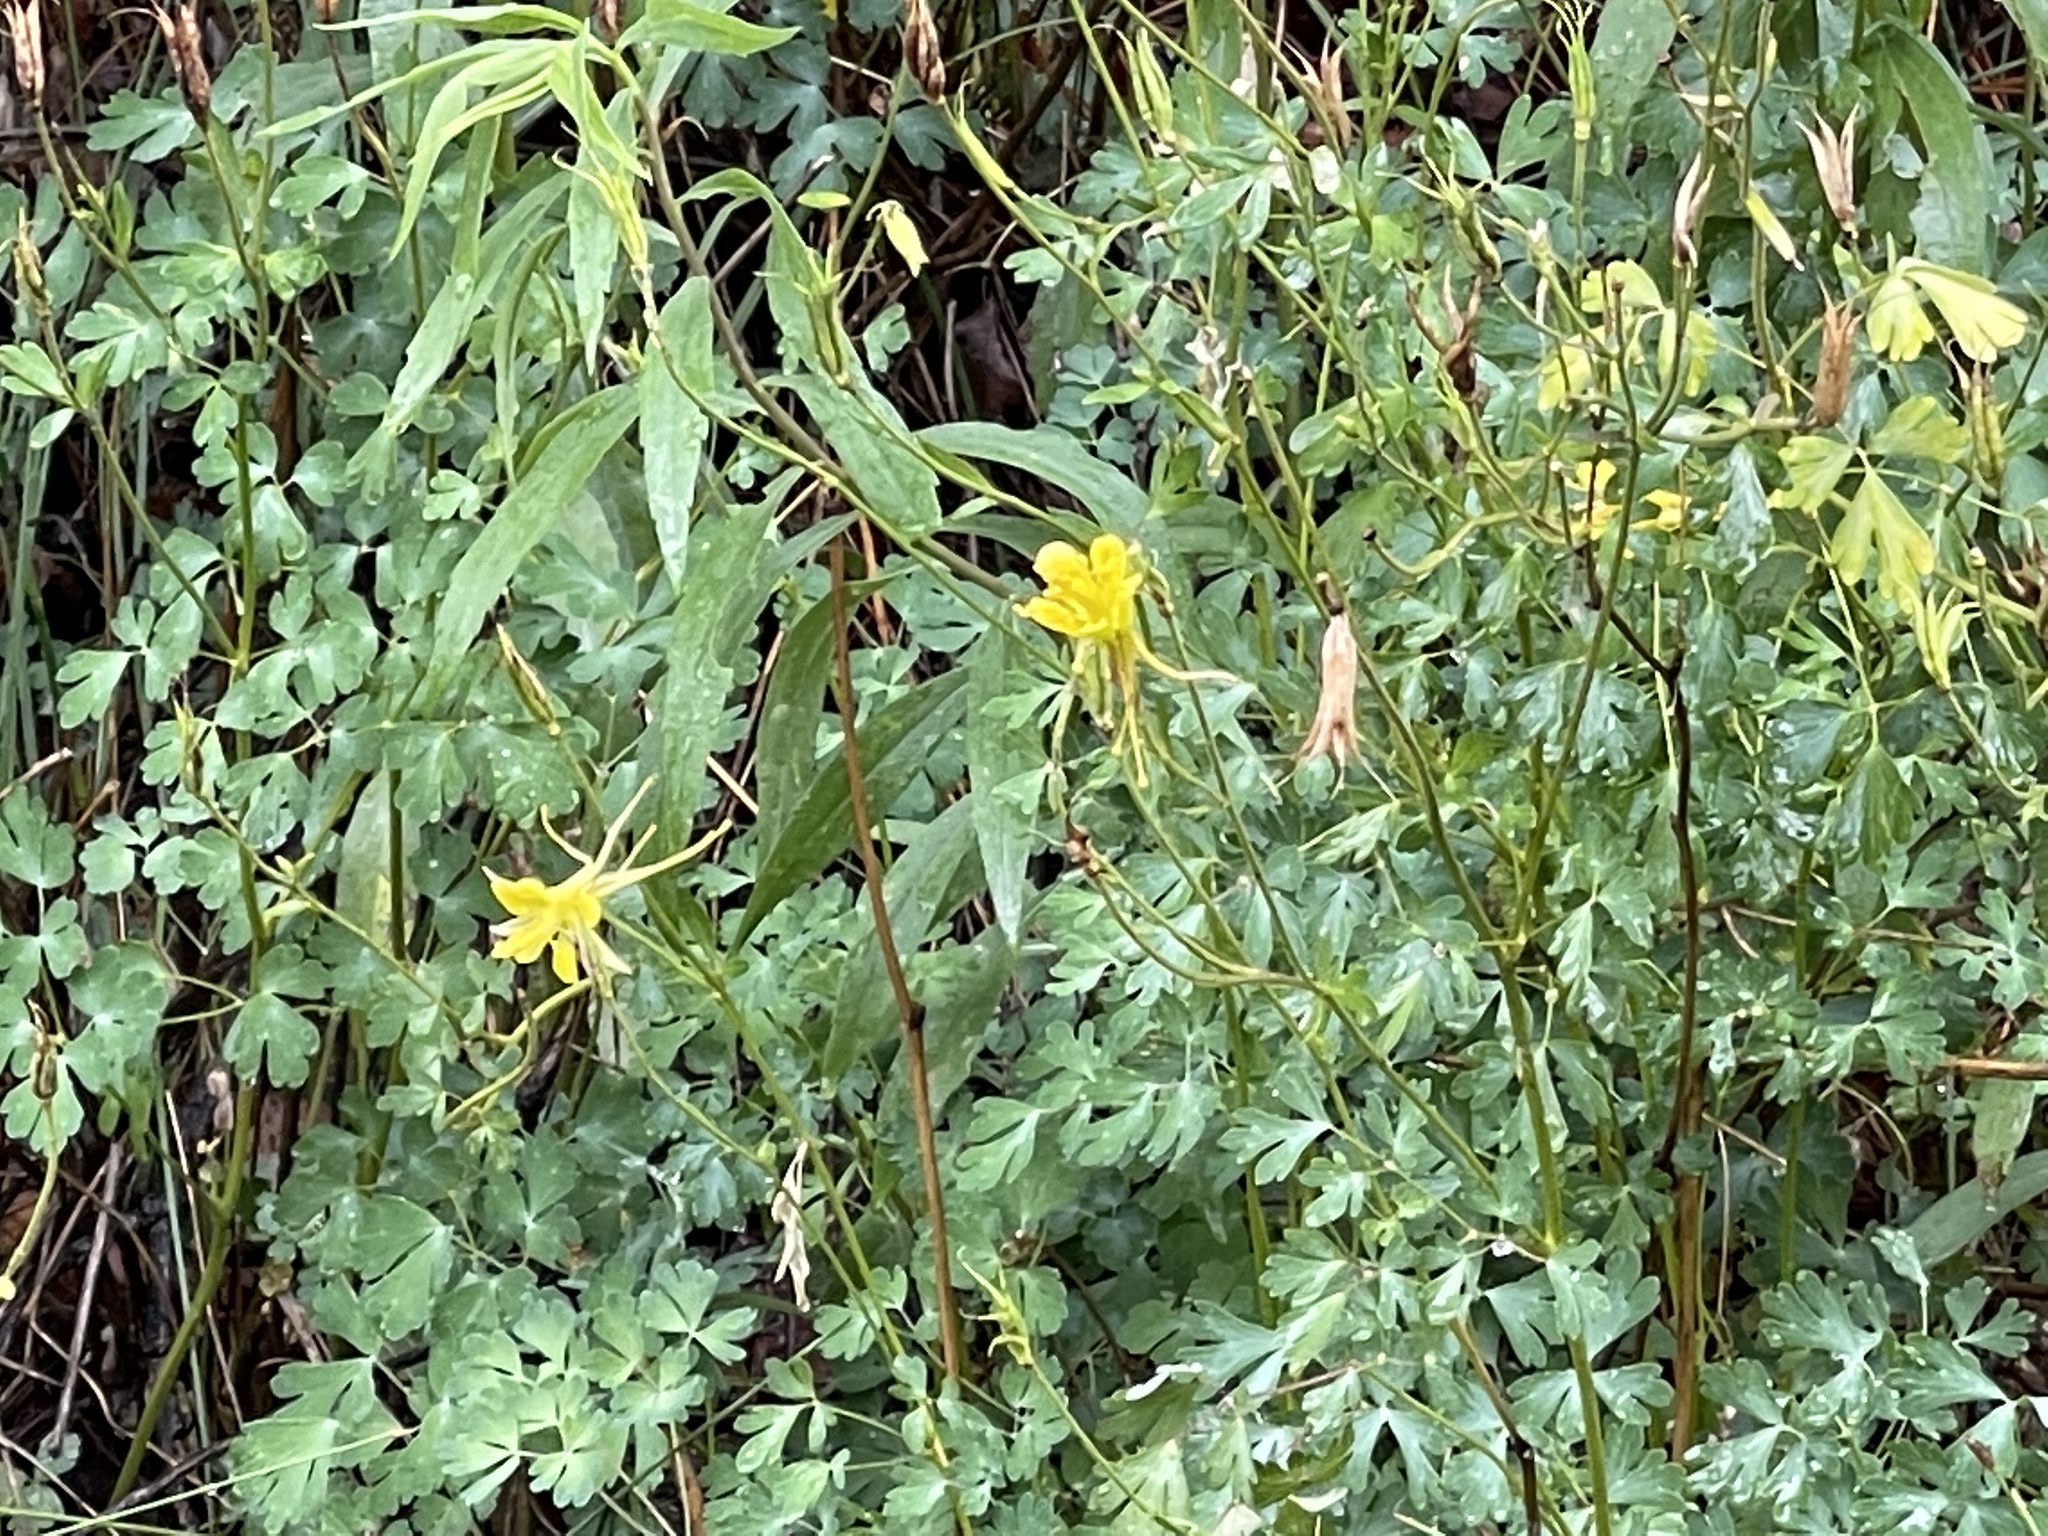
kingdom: Plantae
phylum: Tracheophyta
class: Magnoliopsida
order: Ranunculales
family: Ranunculaceae
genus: Aquilegia
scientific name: Aquilegia chrysantha
